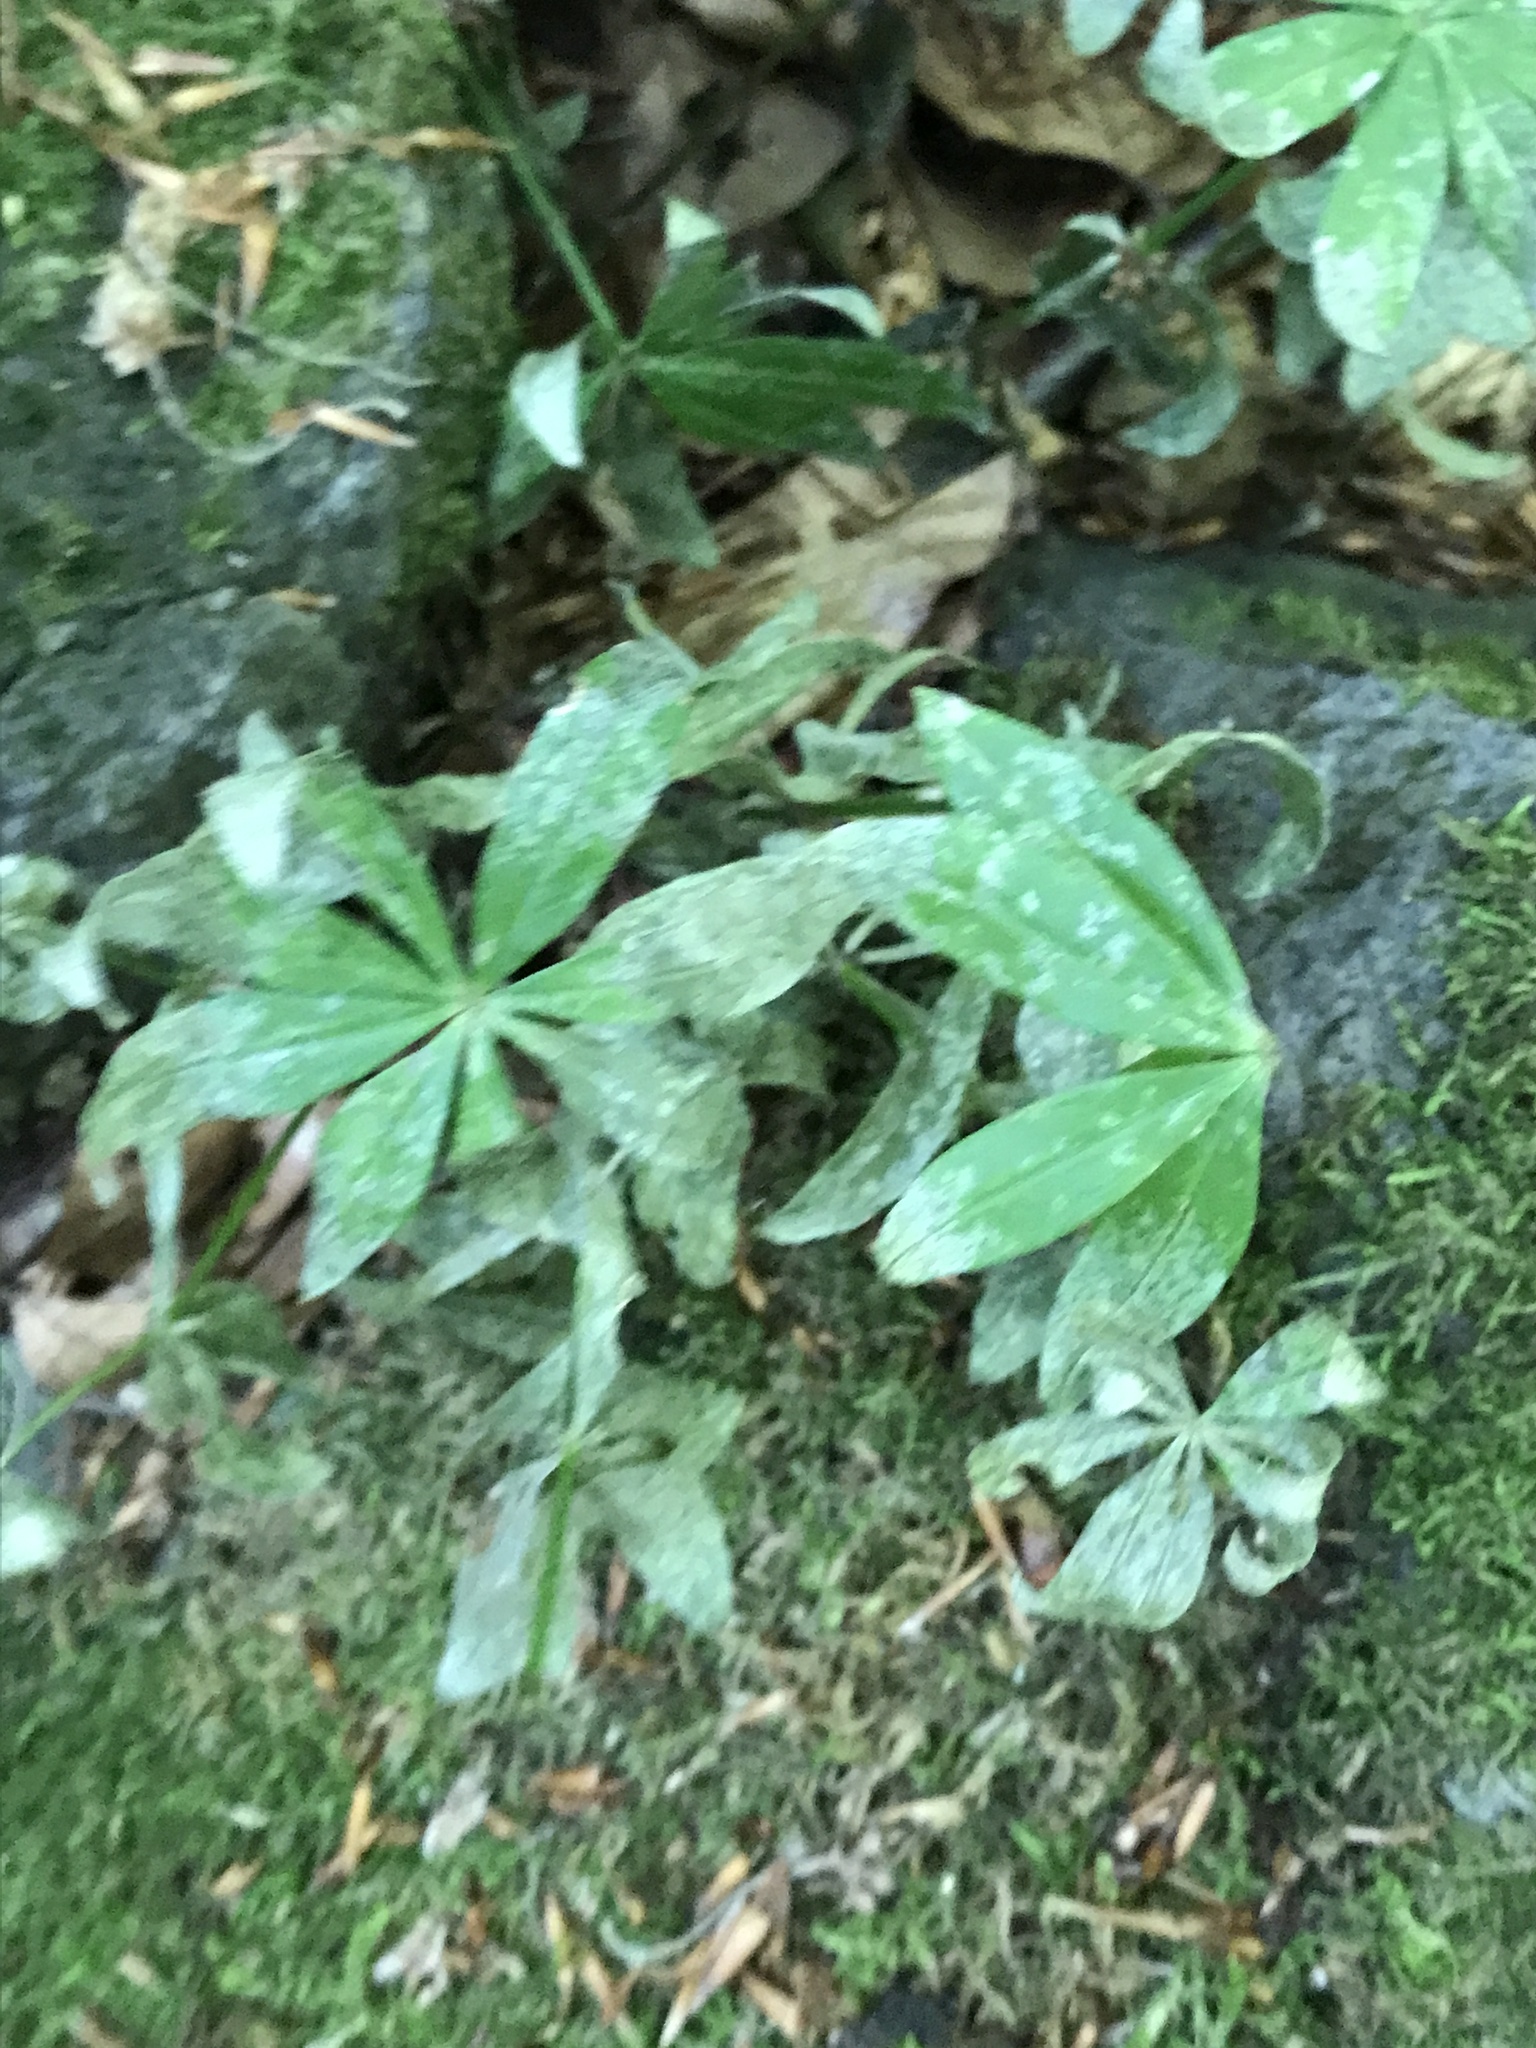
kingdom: Plantae
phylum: Tracheophyta
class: Magnoliopsida
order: Gentianales
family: Rubiaceae
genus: Galium
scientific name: Galium odoratum
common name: Sweet woodruff
